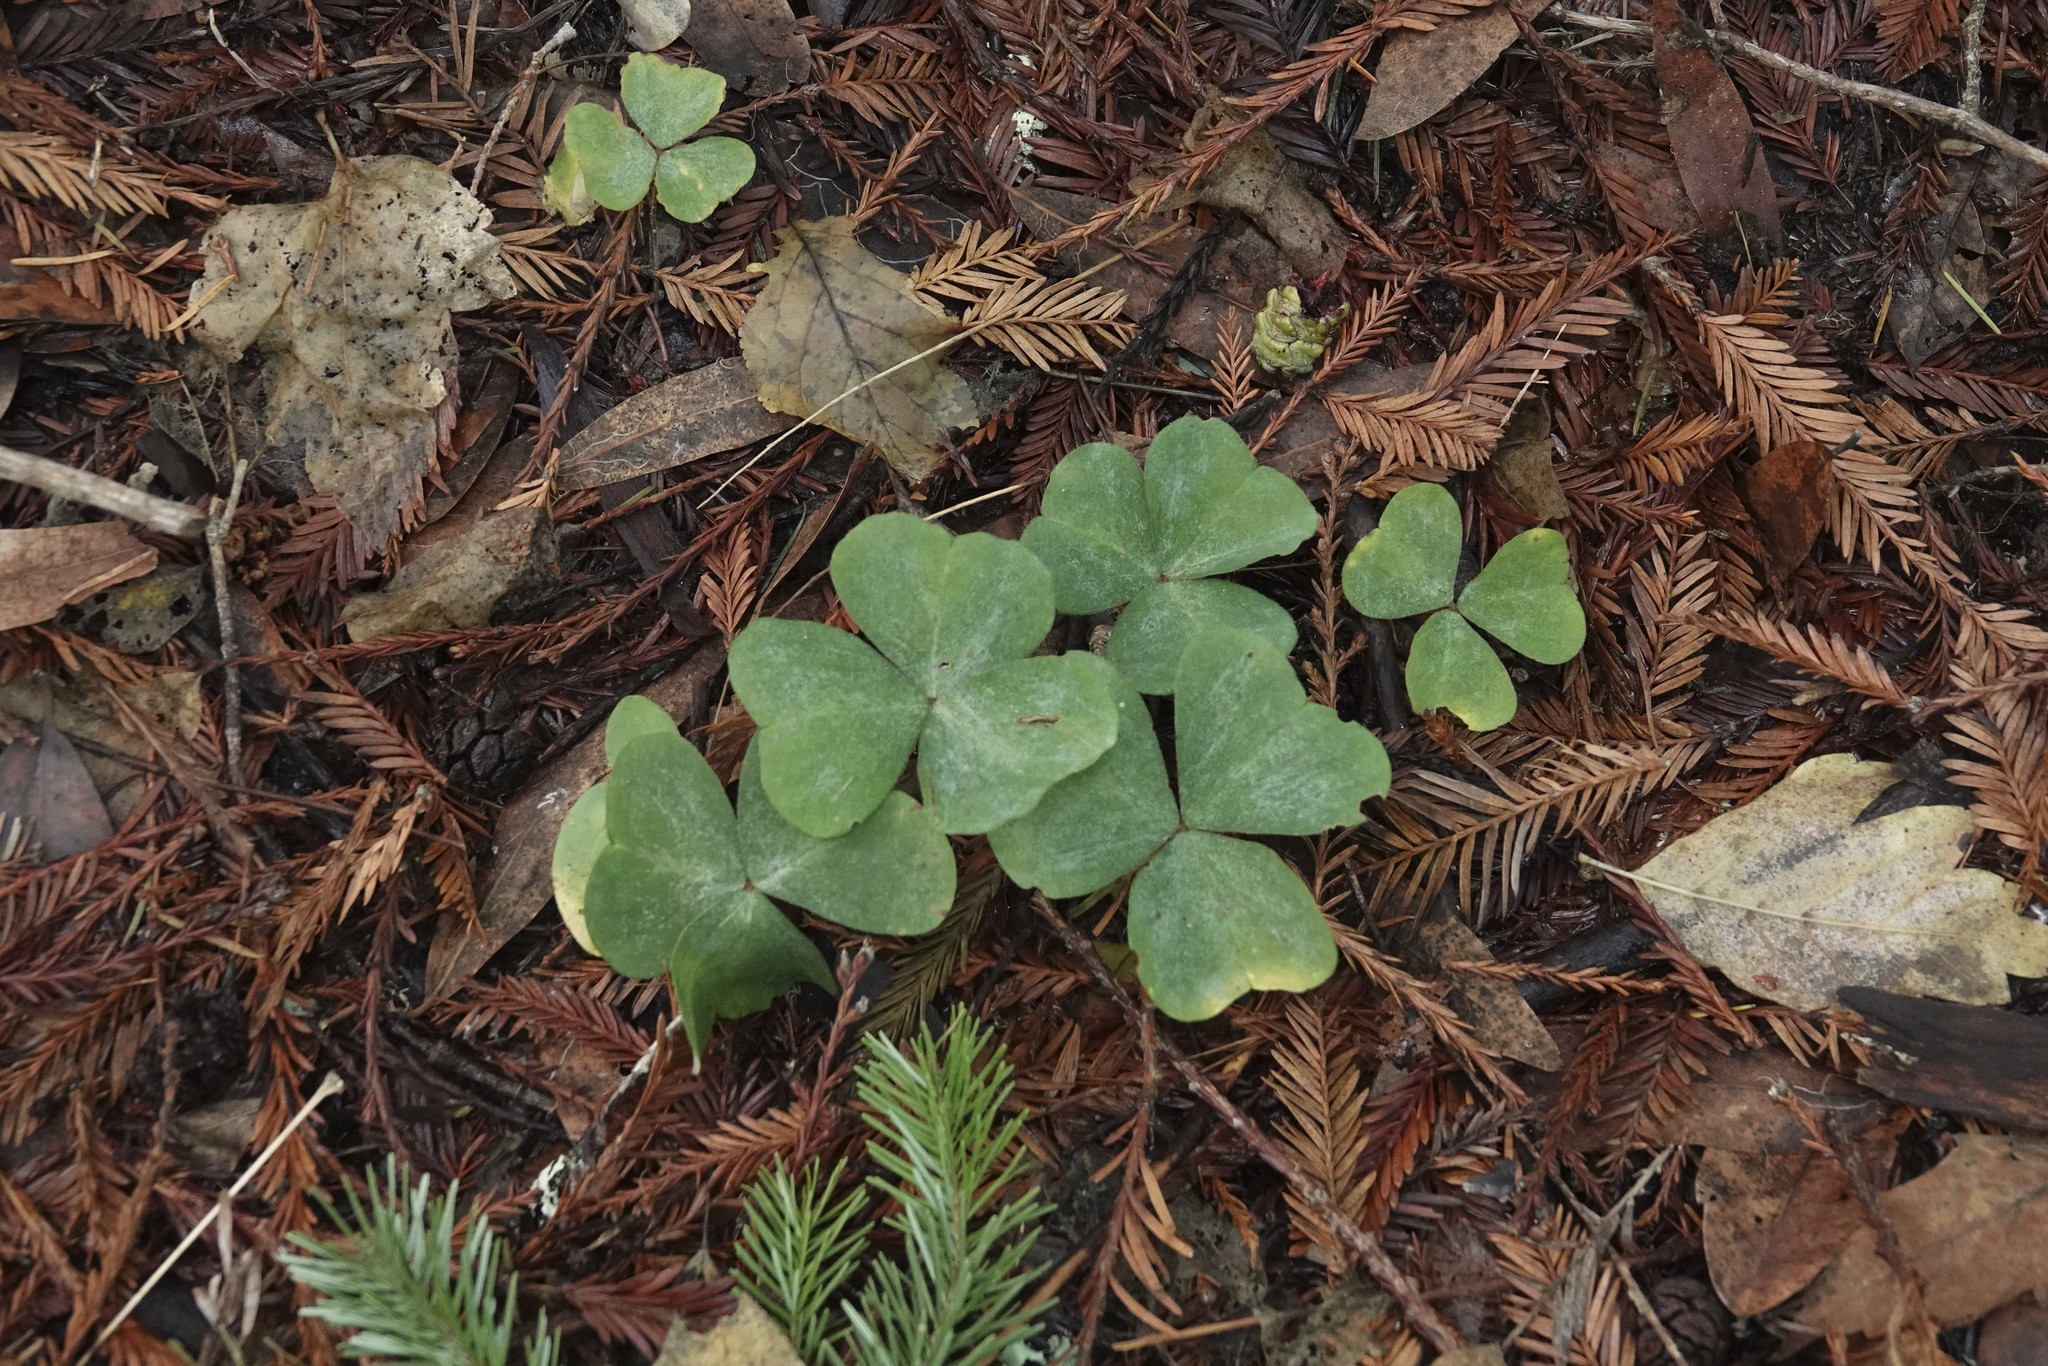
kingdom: Plantae
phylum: Tracheophyta
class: Magnoliopsida
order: Oxalidales
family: Oxalidaceae
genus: Oxalis
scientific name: Oxalis oregana
